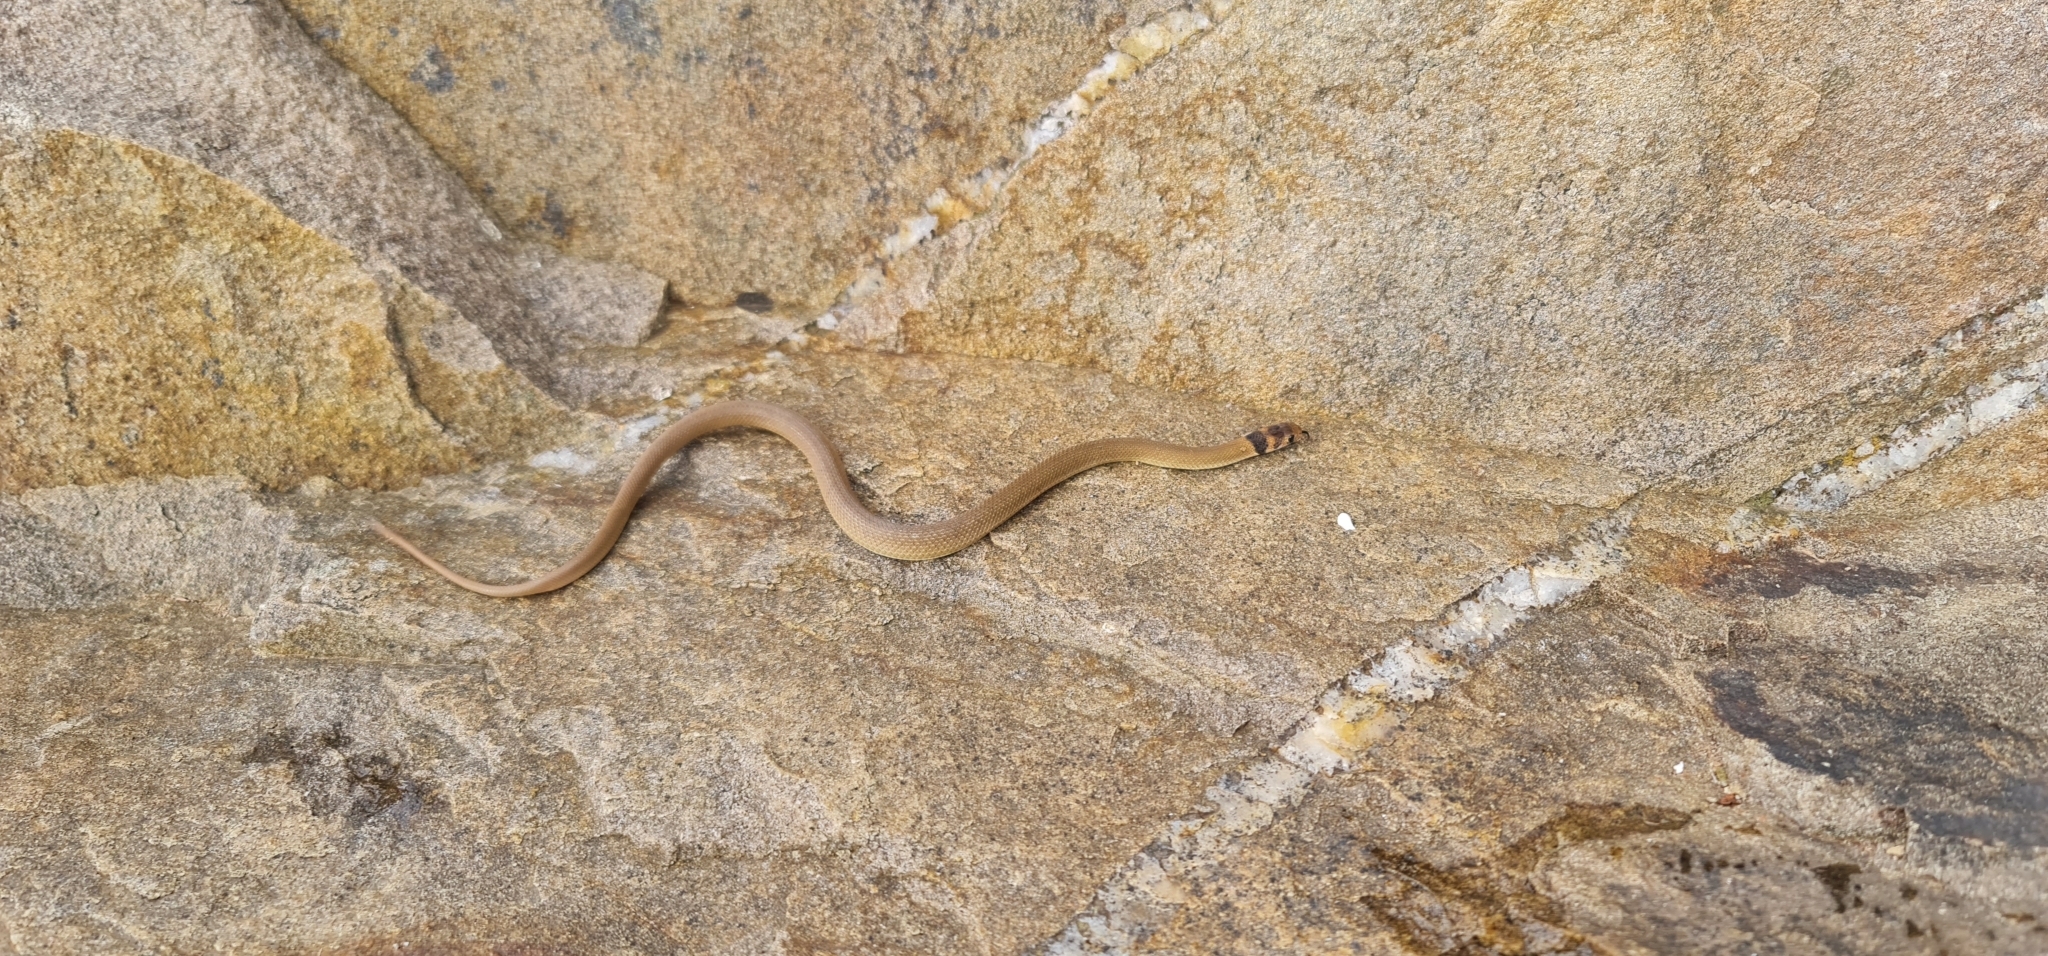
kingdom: Animalia
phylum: Chordata
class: Squamata
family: Elapidae
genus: Pseudonaja
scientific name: Pseudonaja textilis
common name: Eastern brown snake
